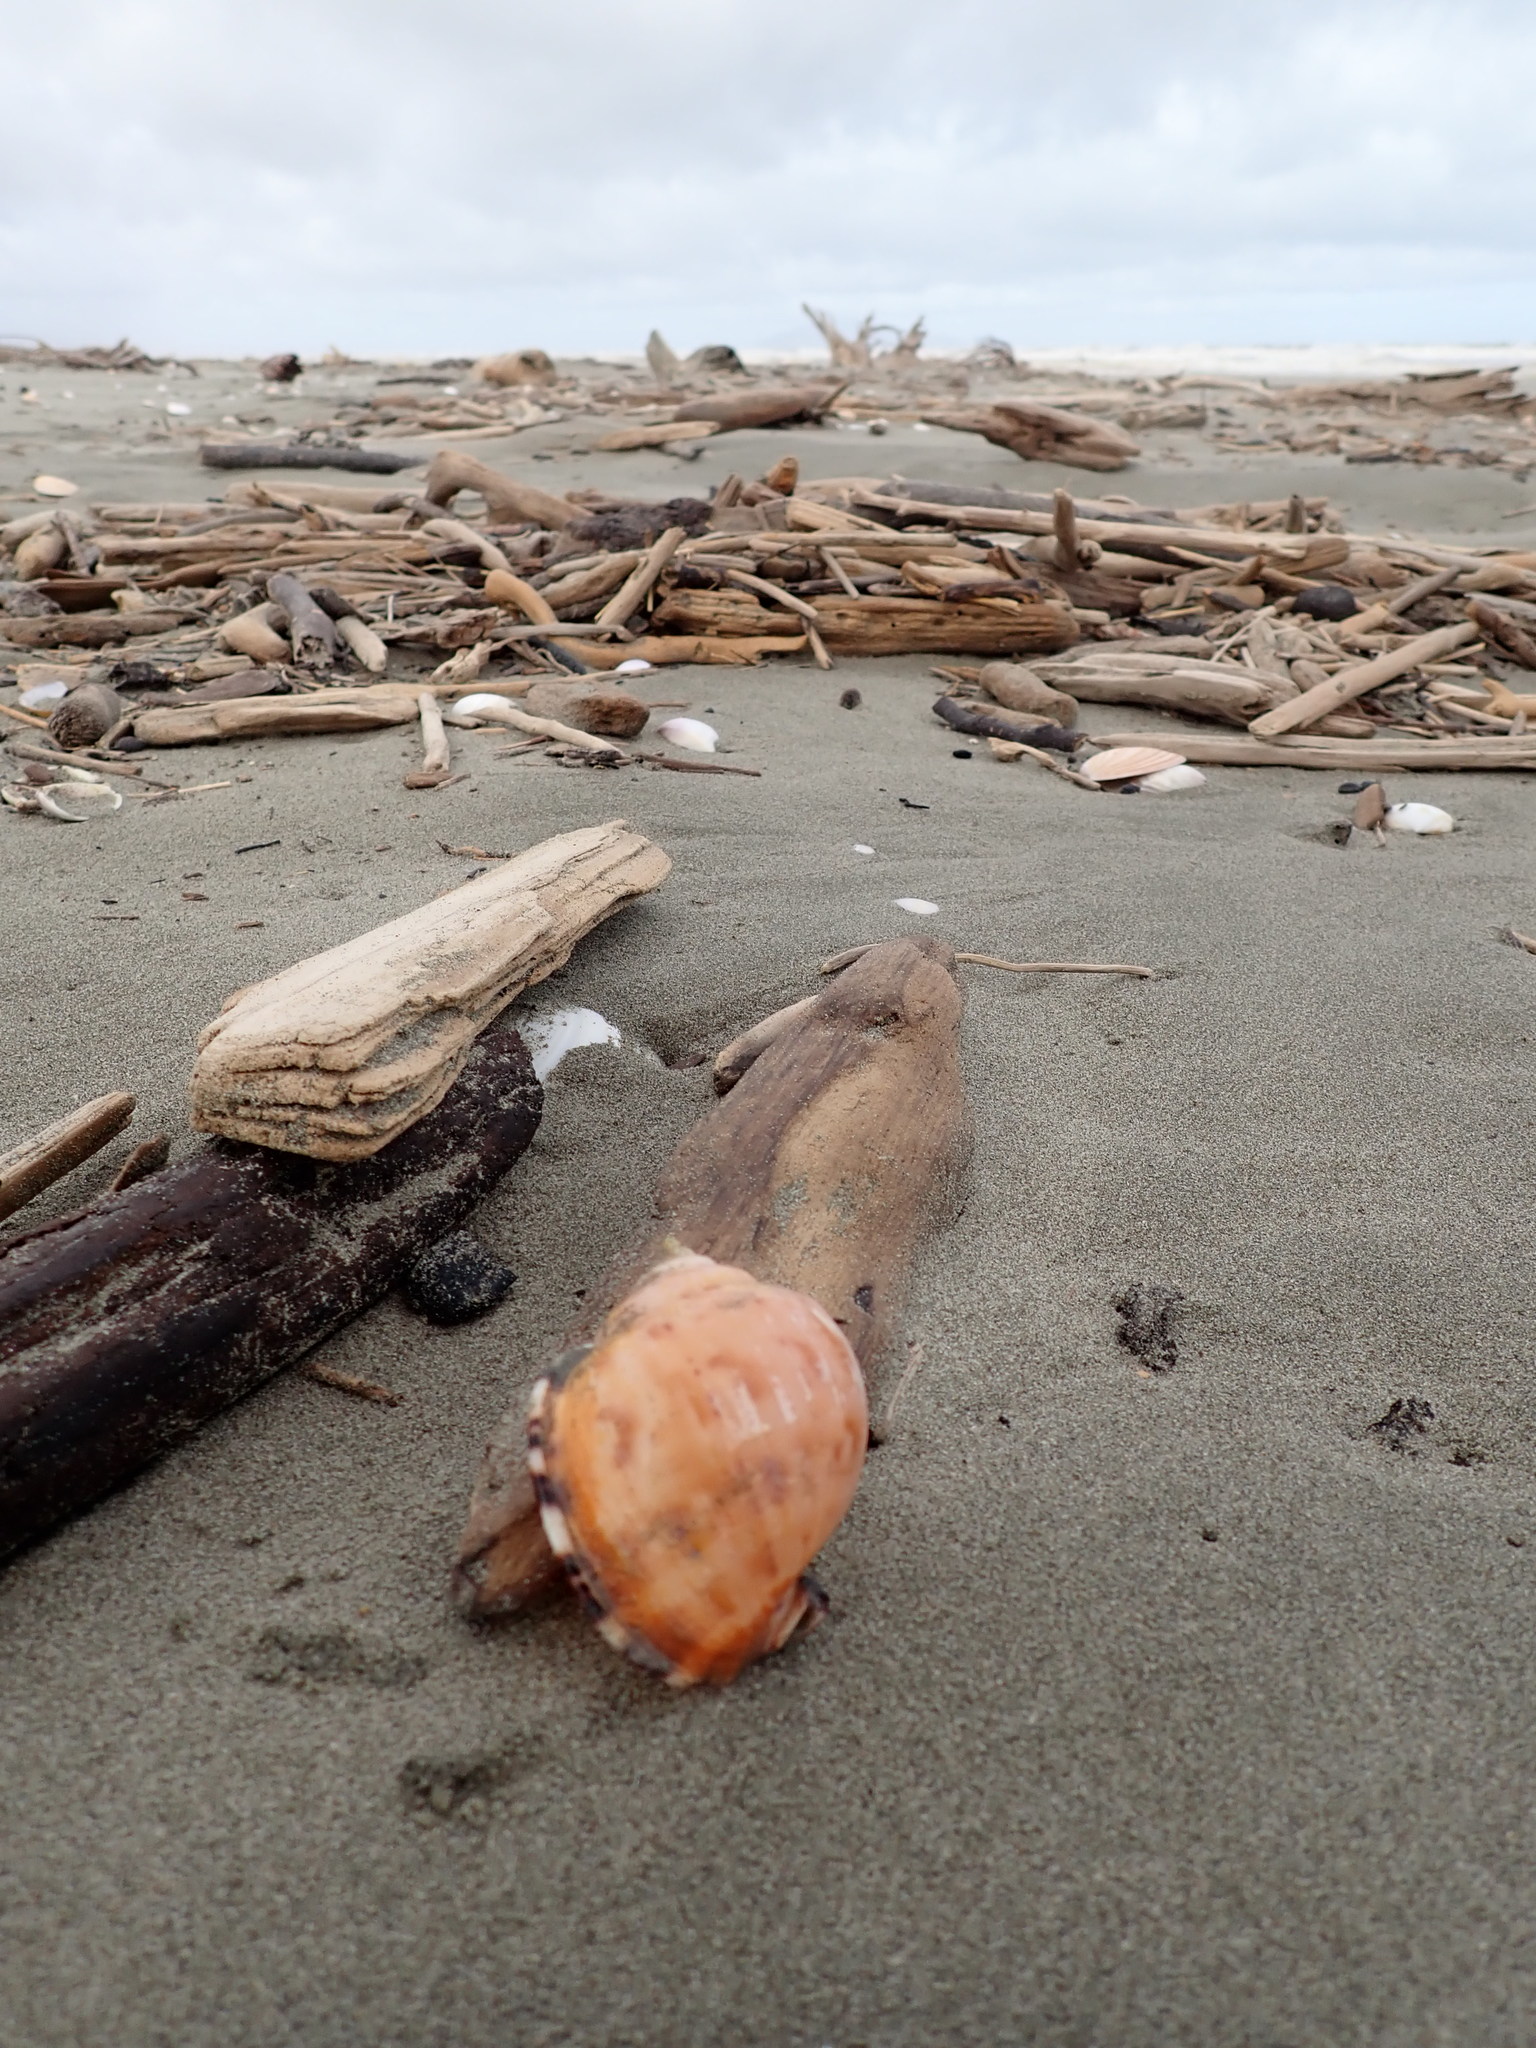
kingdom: Animalia
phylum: Mollusca
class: Gastropoda
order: Littorinimorpha
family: Cassidae
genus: Semicassis
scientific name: Semicassis pyrum
